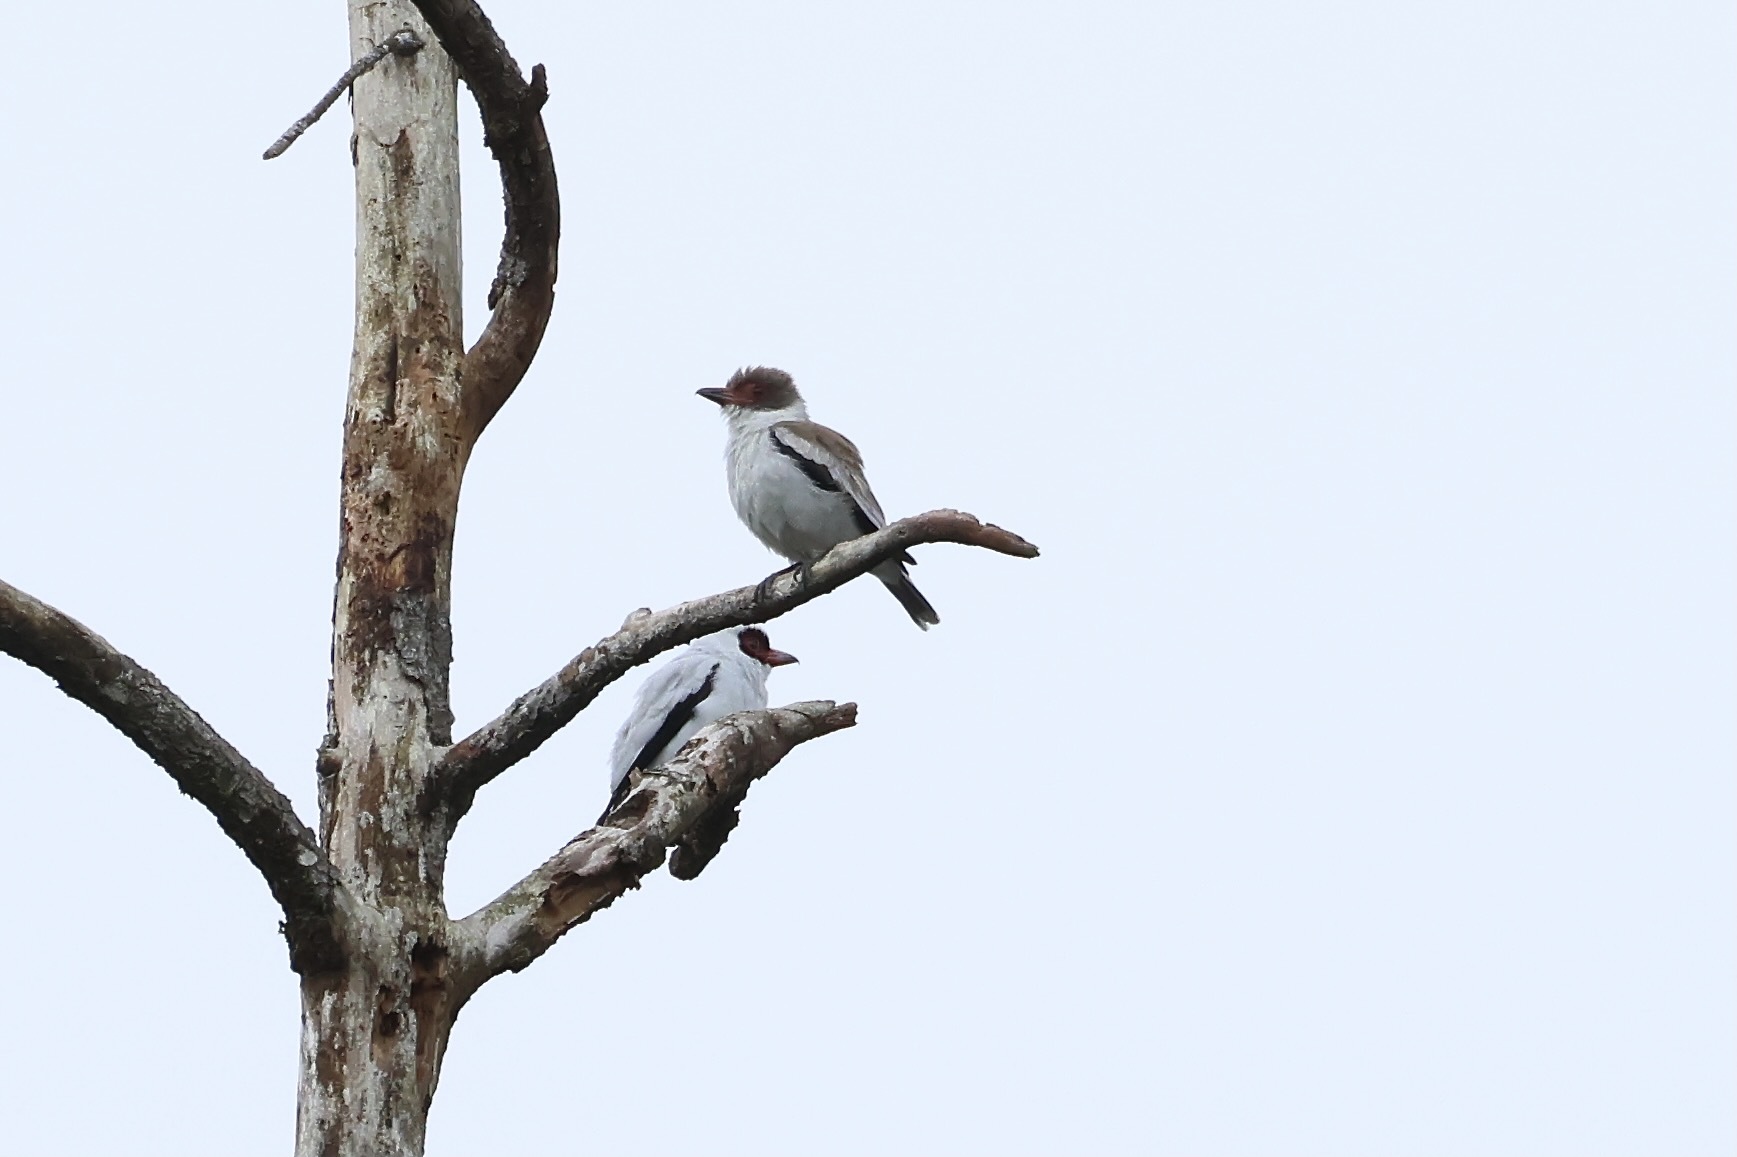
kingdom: Animalia
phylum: Chordata
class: Aves
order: Passeriformes
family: Cotingidae
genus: Tityra
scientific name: Tityra semifasciata
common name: Masked tityra
